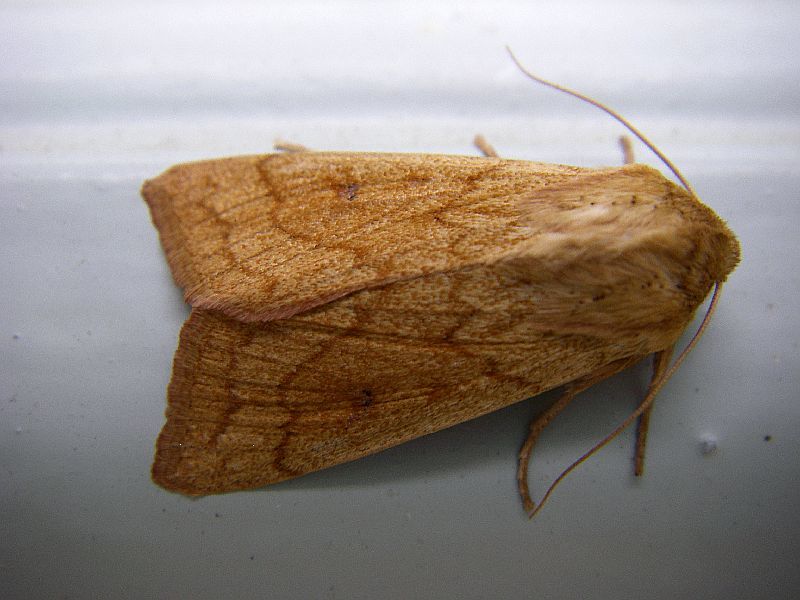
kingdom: Animalia
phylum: Arthropoda
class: Insecta
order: Lepidoptera
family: Noctuidae
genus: Mythimna
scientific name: Mythimna vitellina
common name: Delicate
